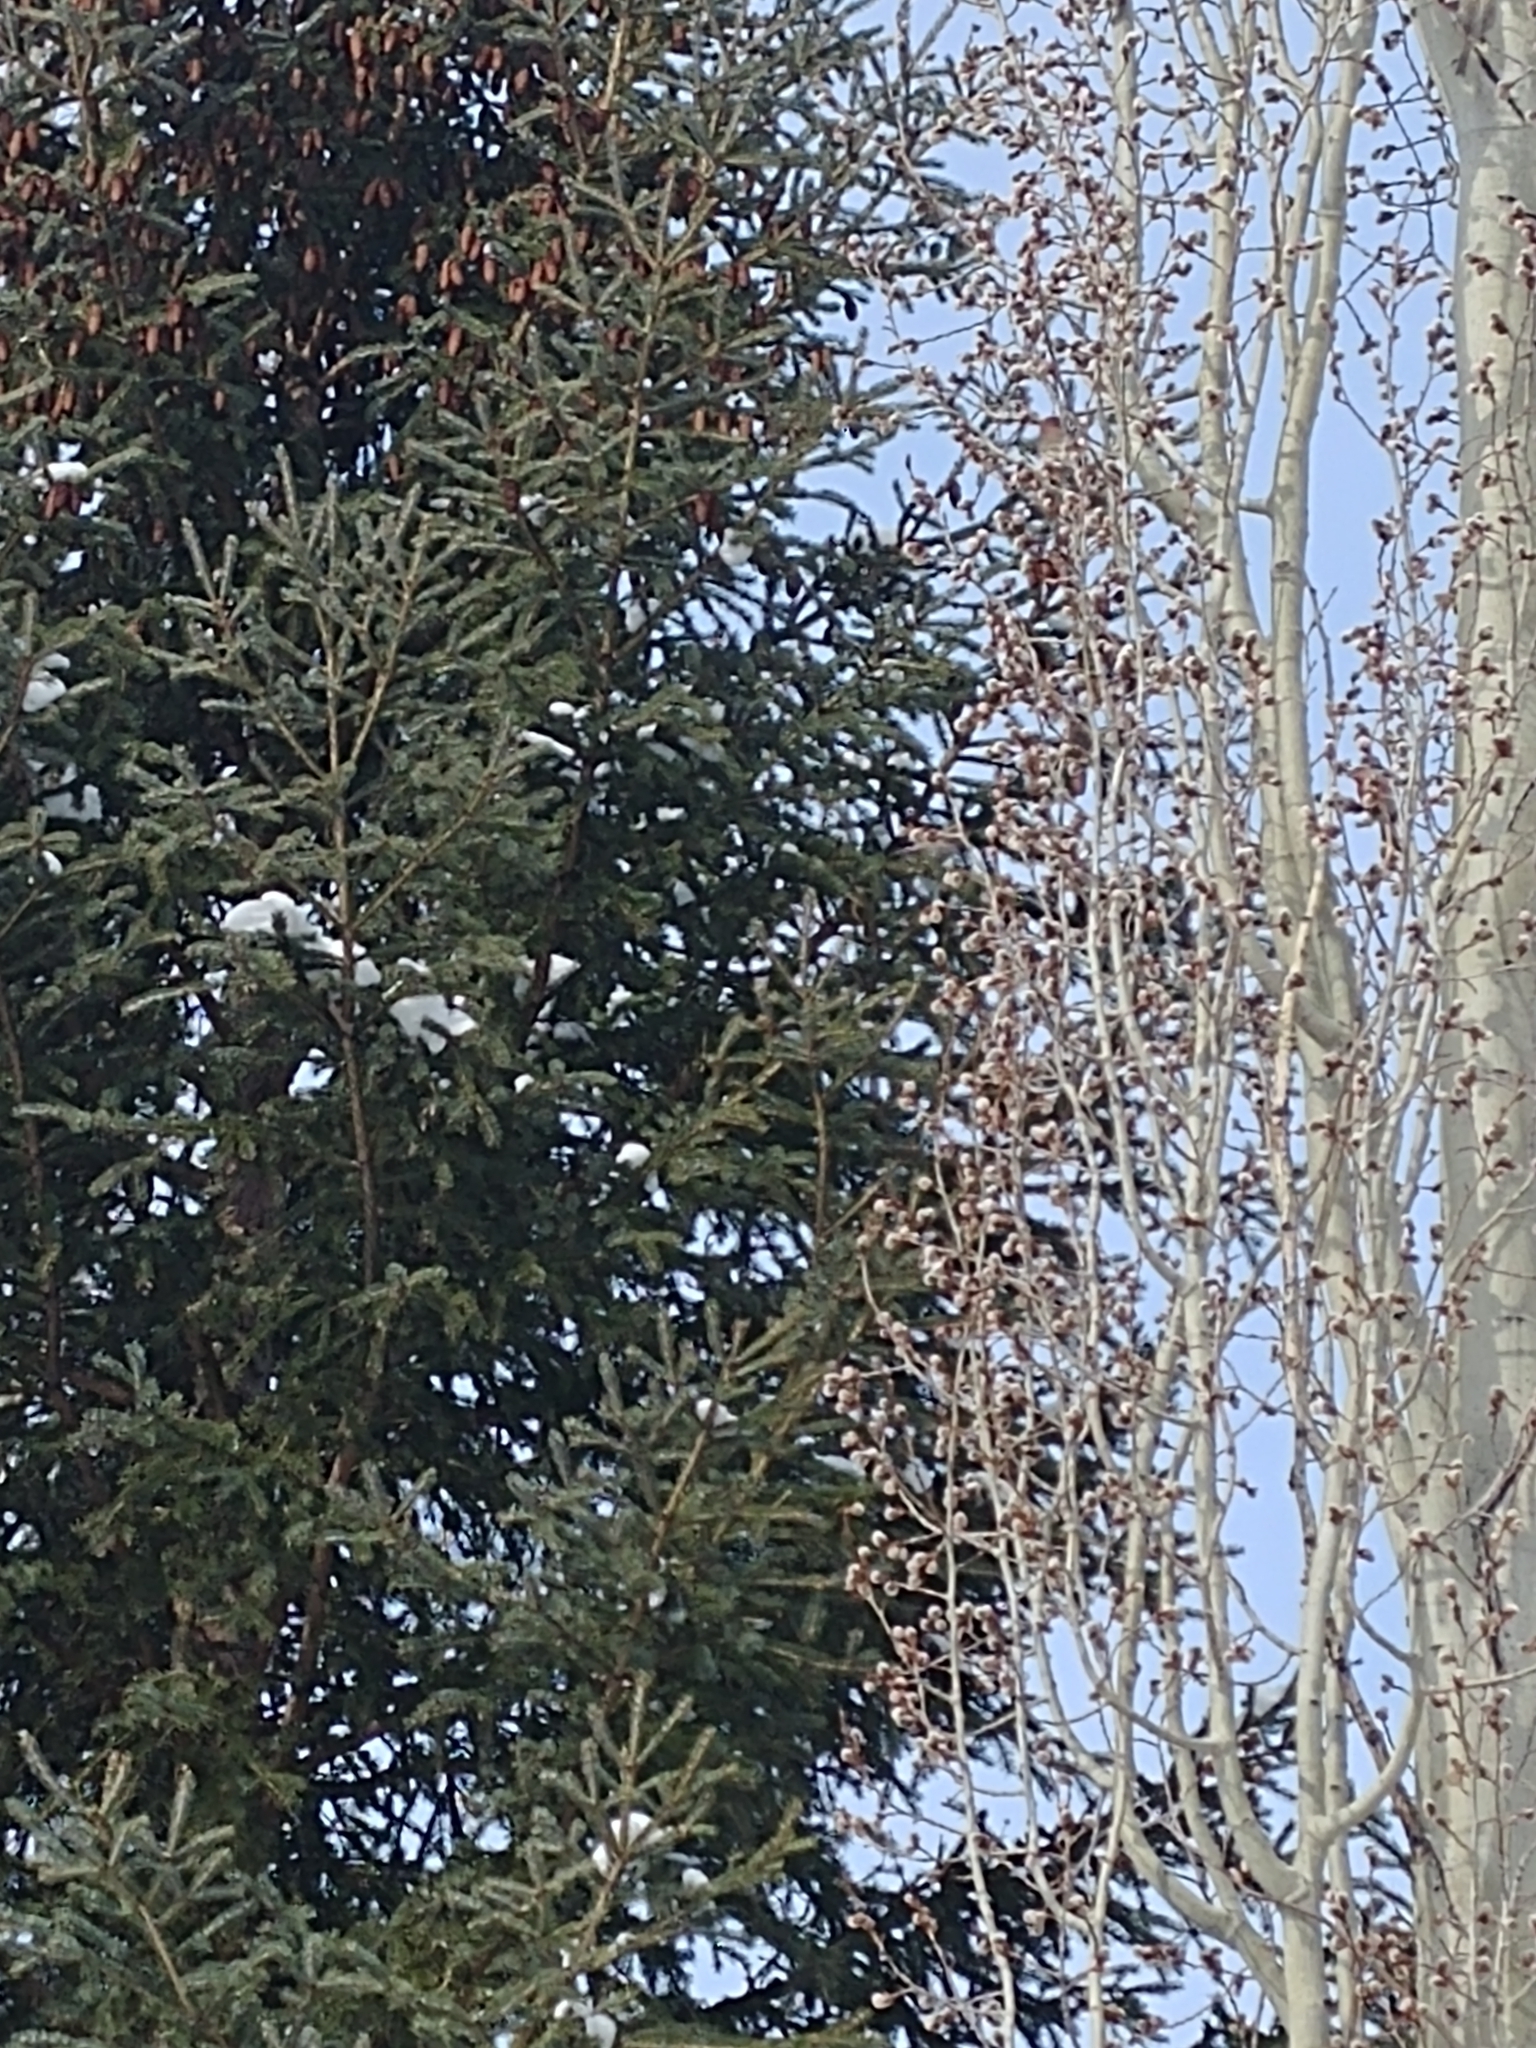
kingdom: Animalia
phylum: Chordata
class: Aves
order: Passeriformes
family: Fringillidae
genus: Haemorhous
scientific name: Haemorhous mexicanus
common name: House finch
